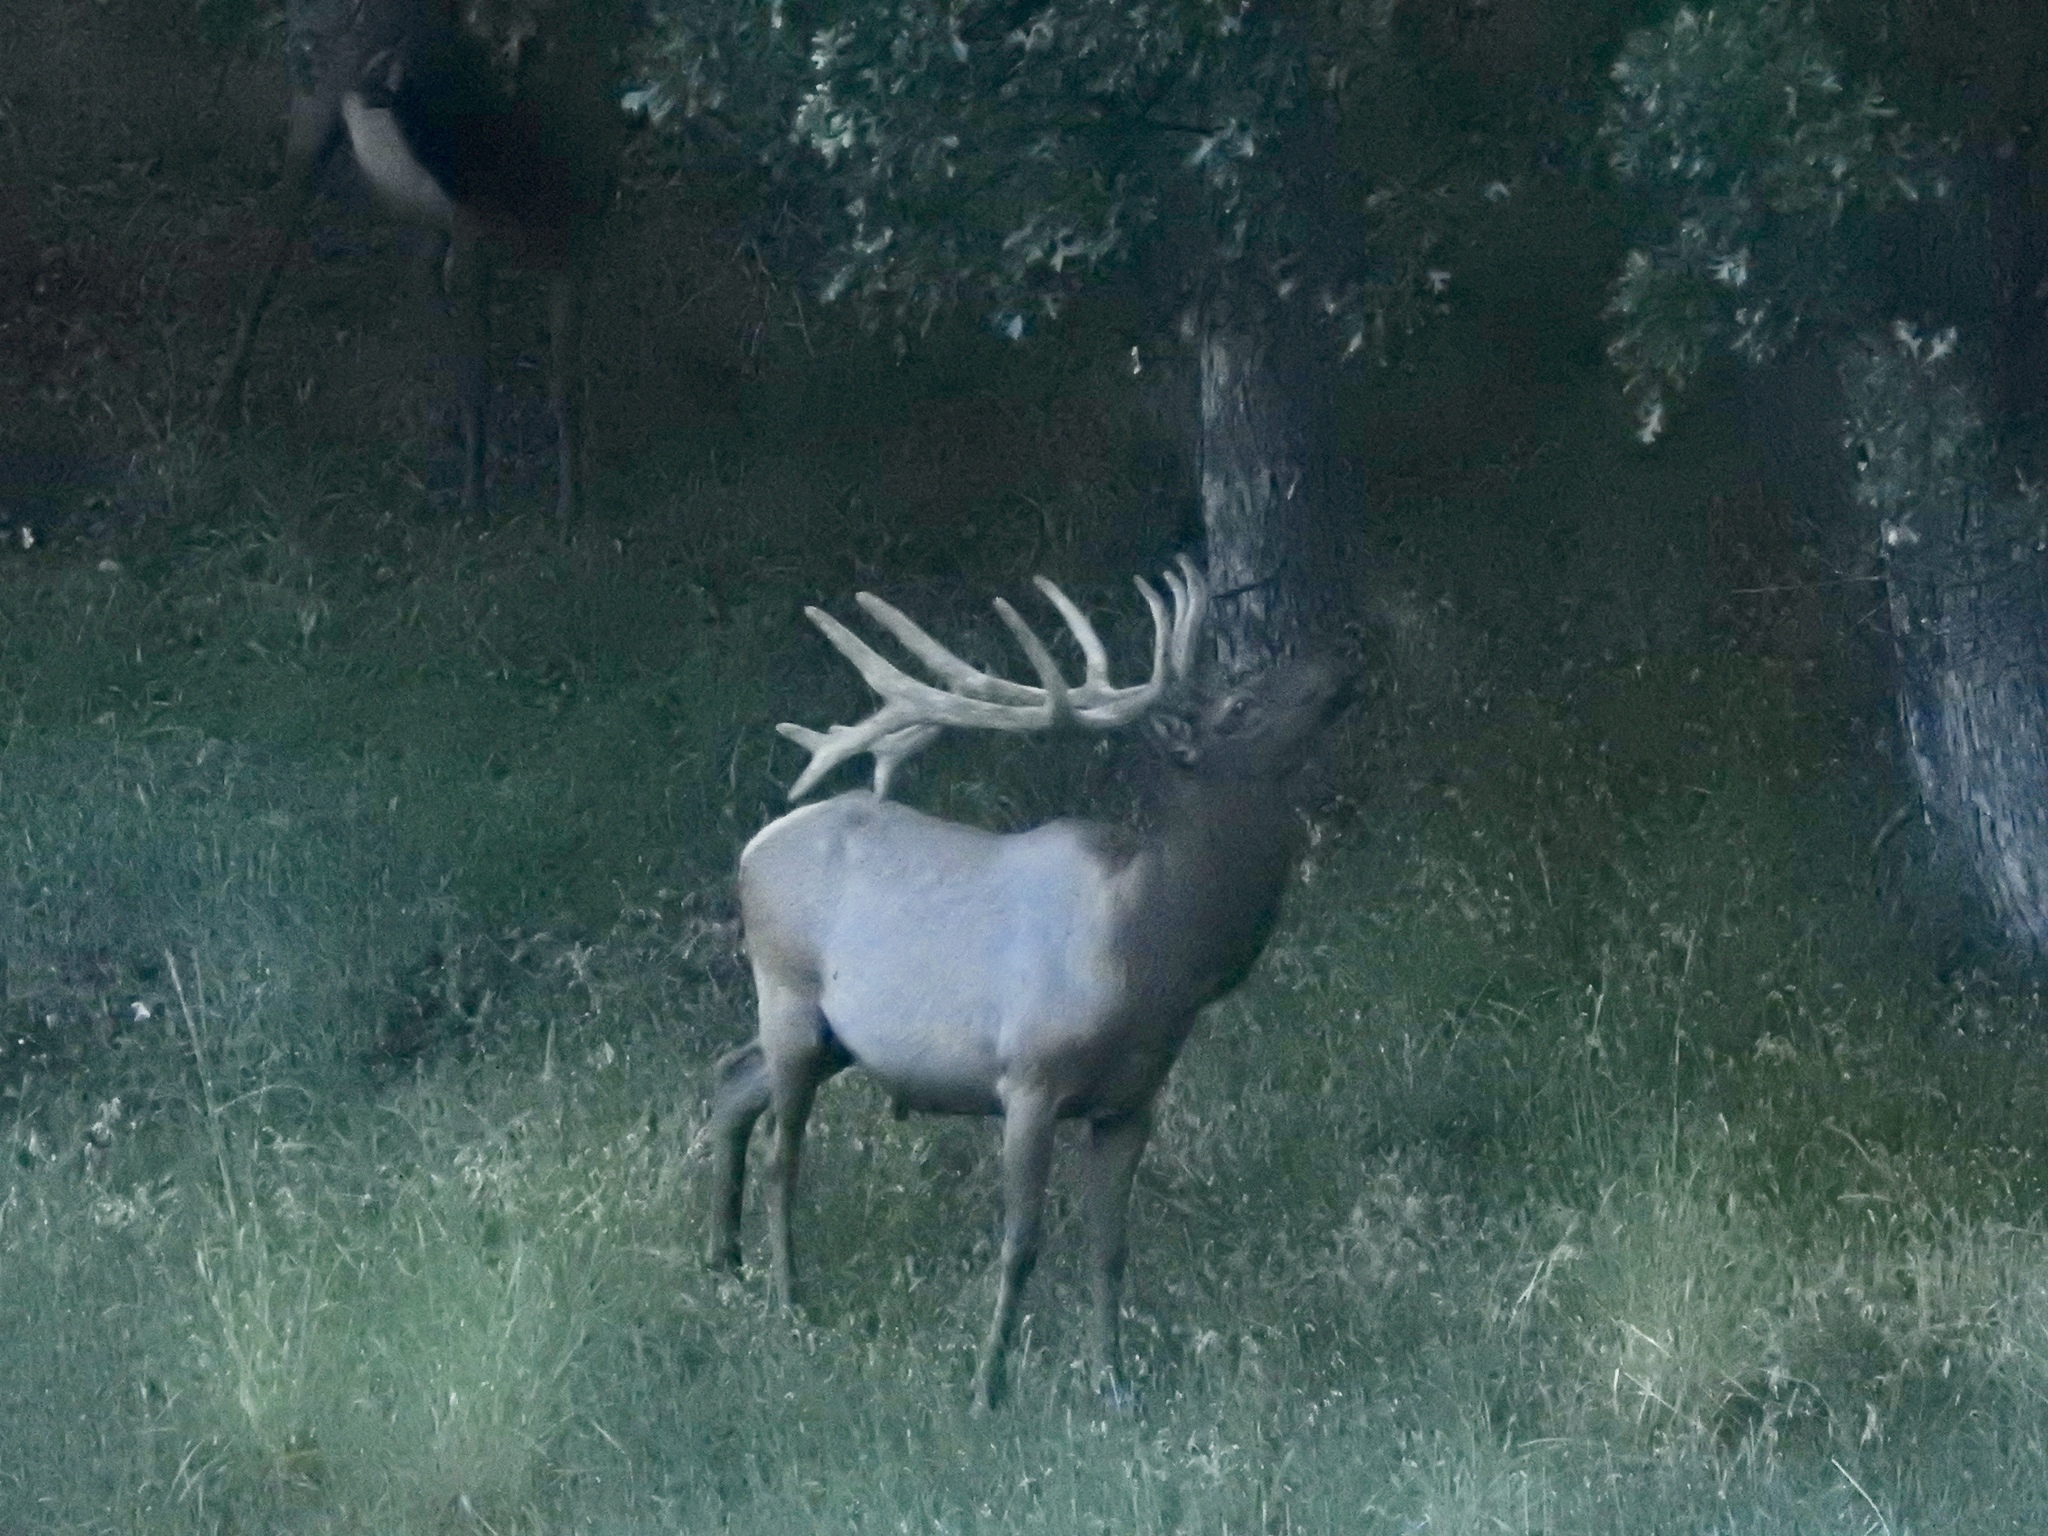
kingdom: Animalia
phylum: Chordata
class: Mammalia
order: Artiodactyla
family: Cervidae
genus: Cervus
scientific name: Cervus elaphus
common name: Red deer
